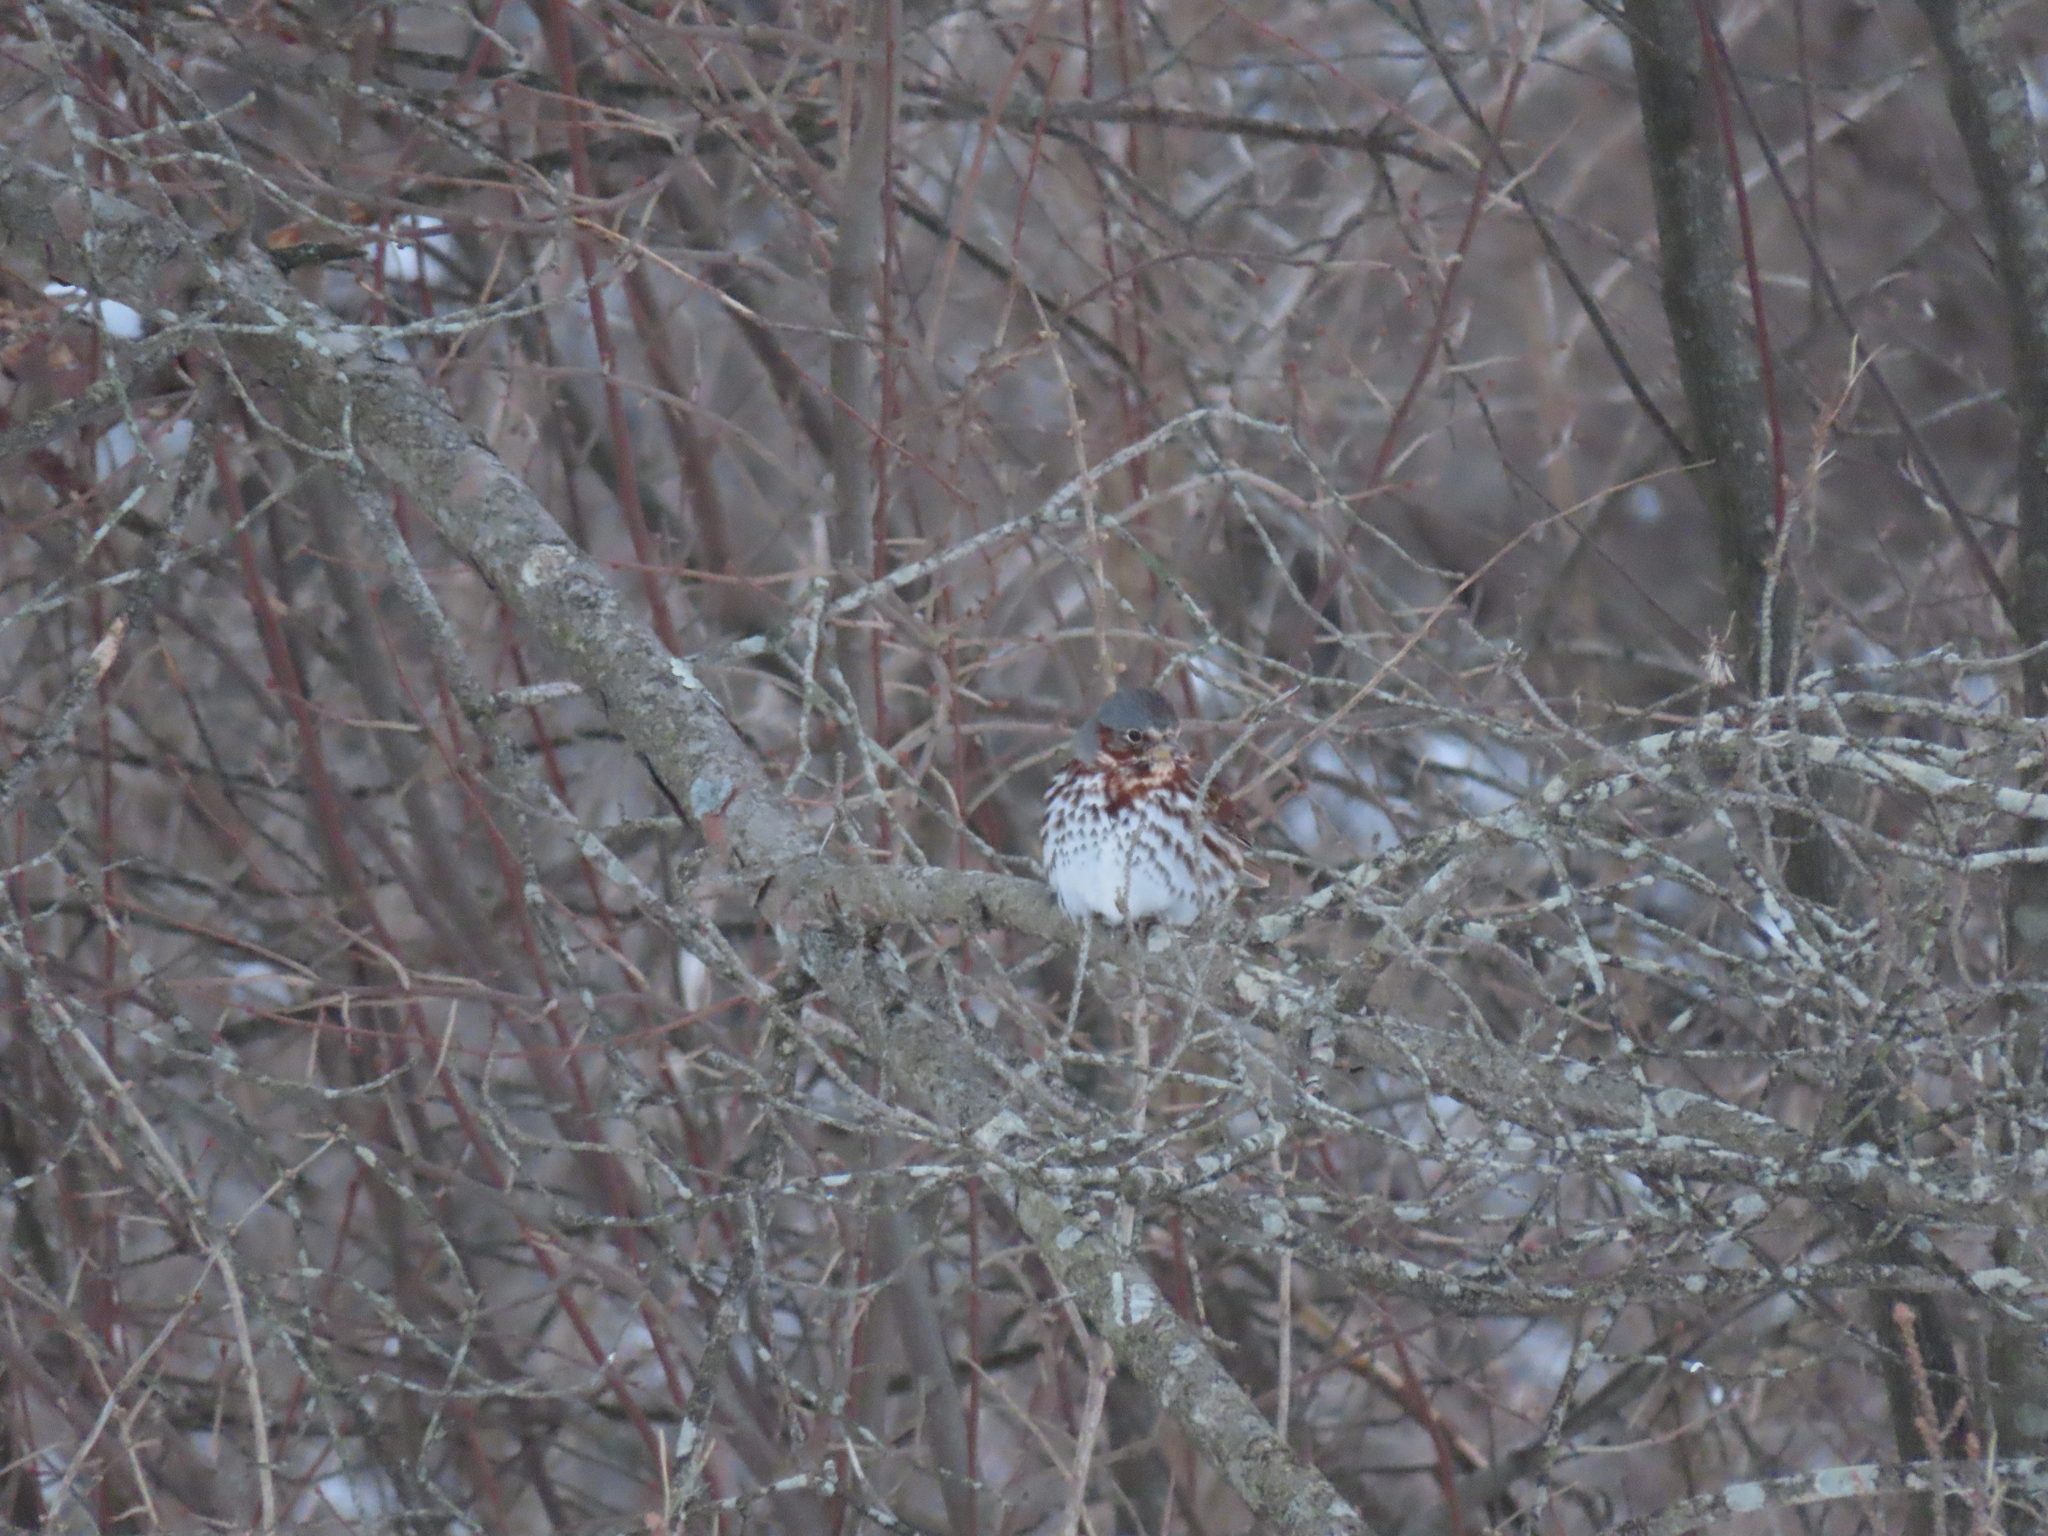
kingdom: Animalia
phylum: Chordata
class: Aves
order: Passeriformes
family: Passerellidae
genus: Passerella
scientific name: Passerella iliaca
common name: Fox sparrow
